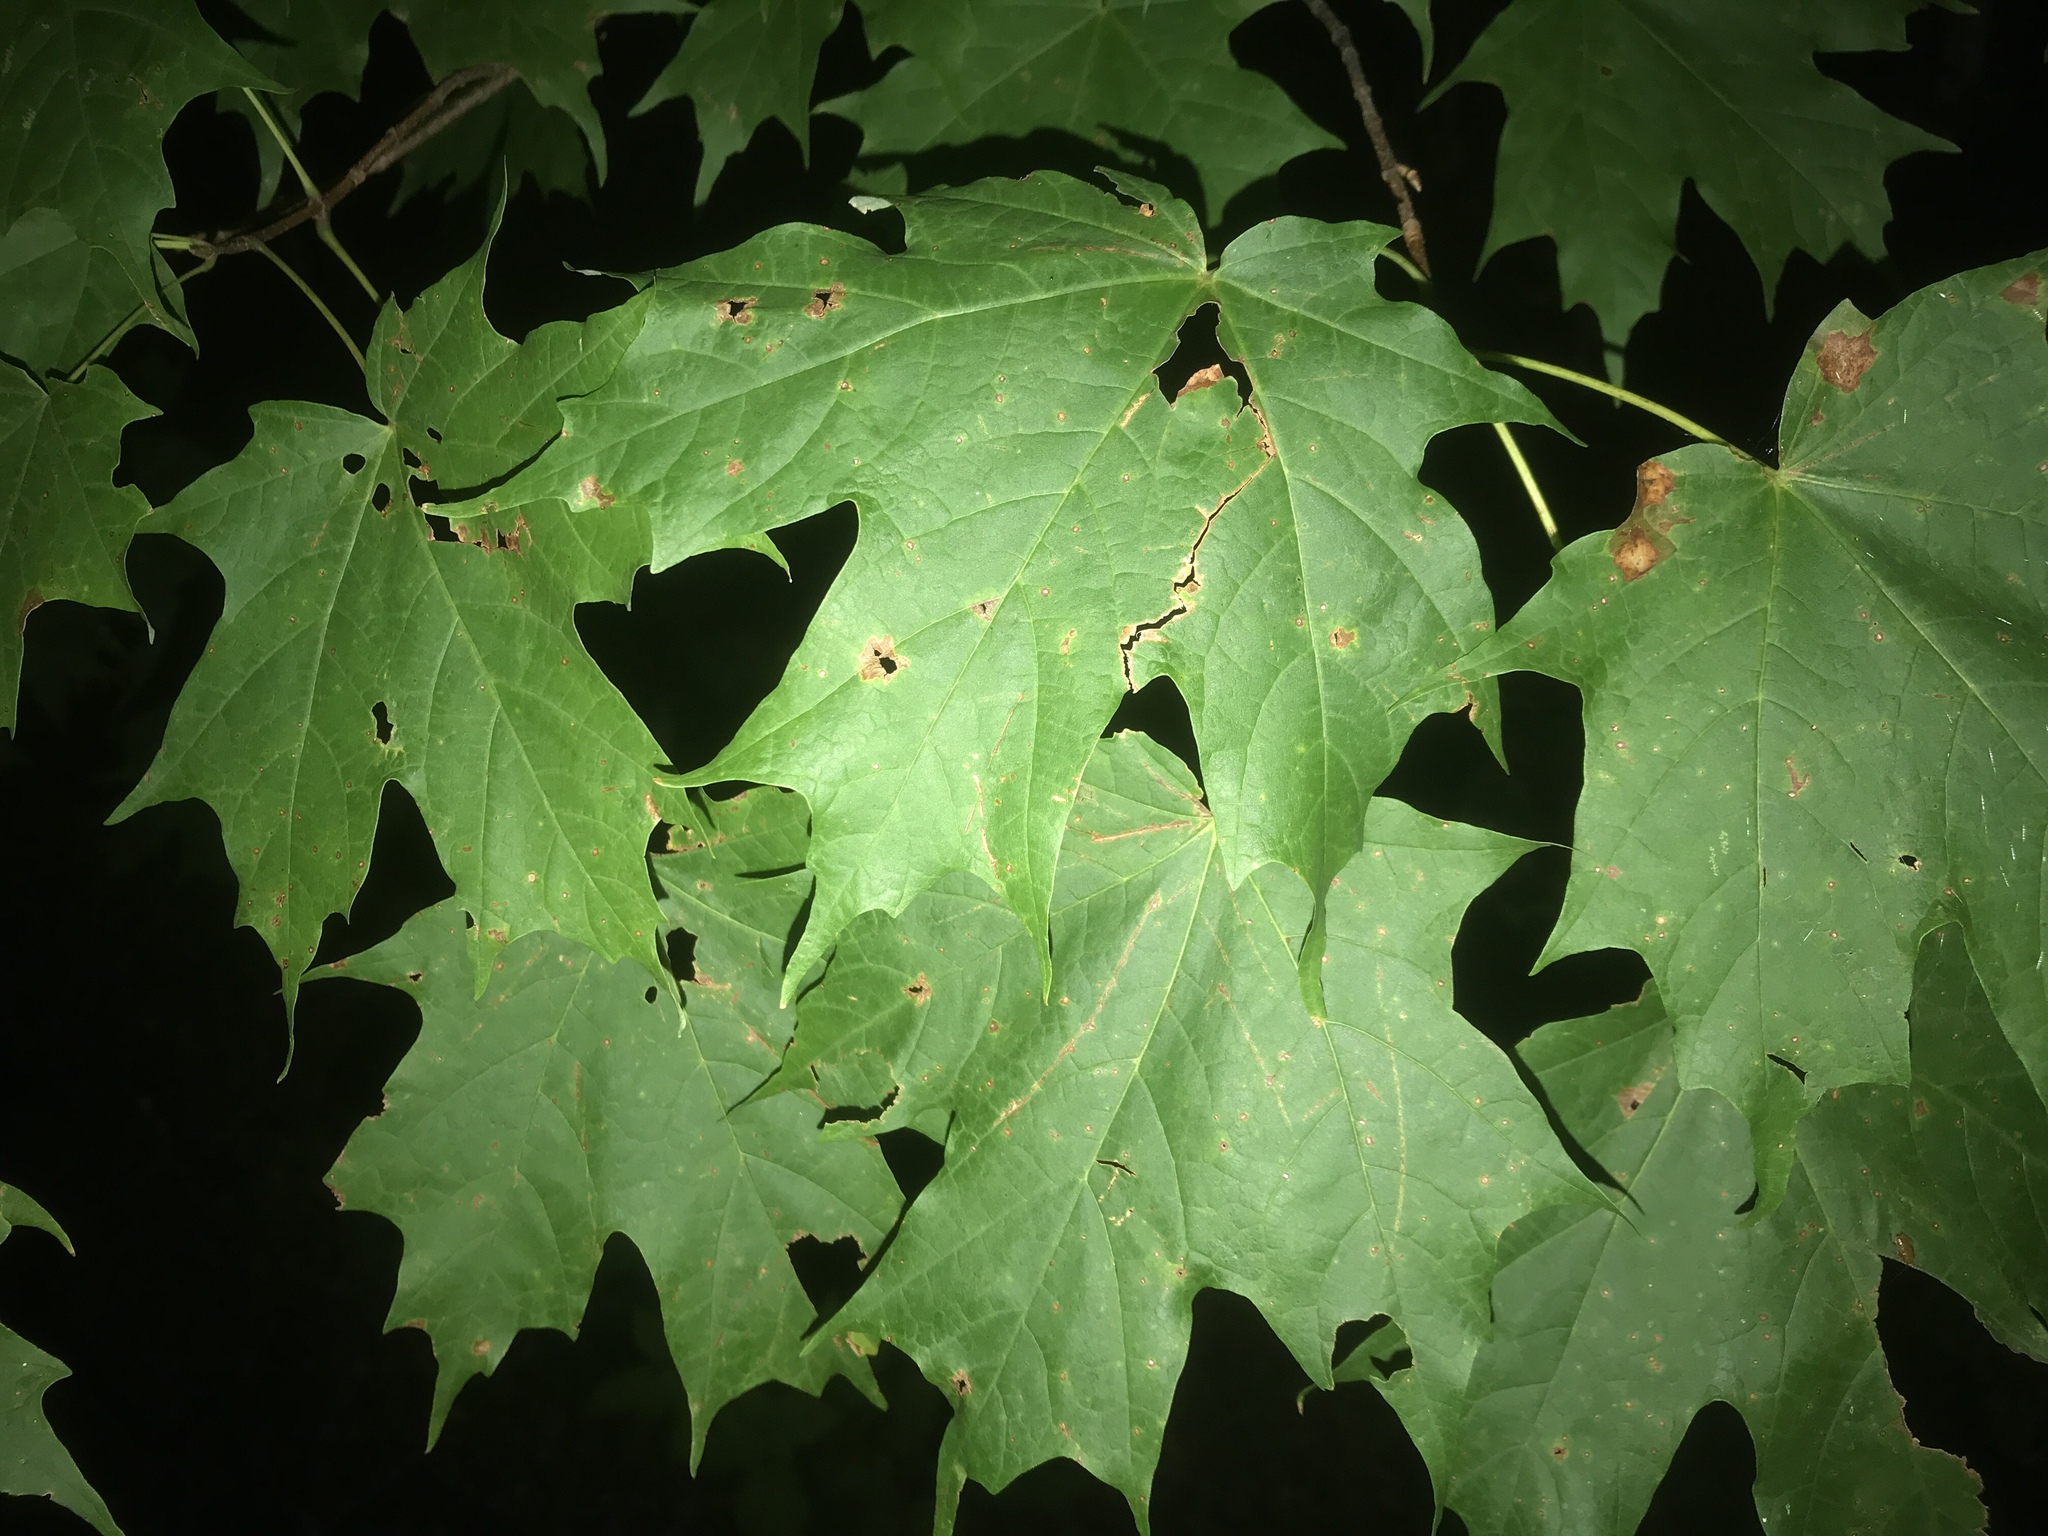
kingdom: Plantae
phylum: Tracheophyta
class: Magnoliopsida
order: Sapindales
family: Sapindaceae
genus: Acer
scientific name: Acer saccharum
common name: Sugar maple
